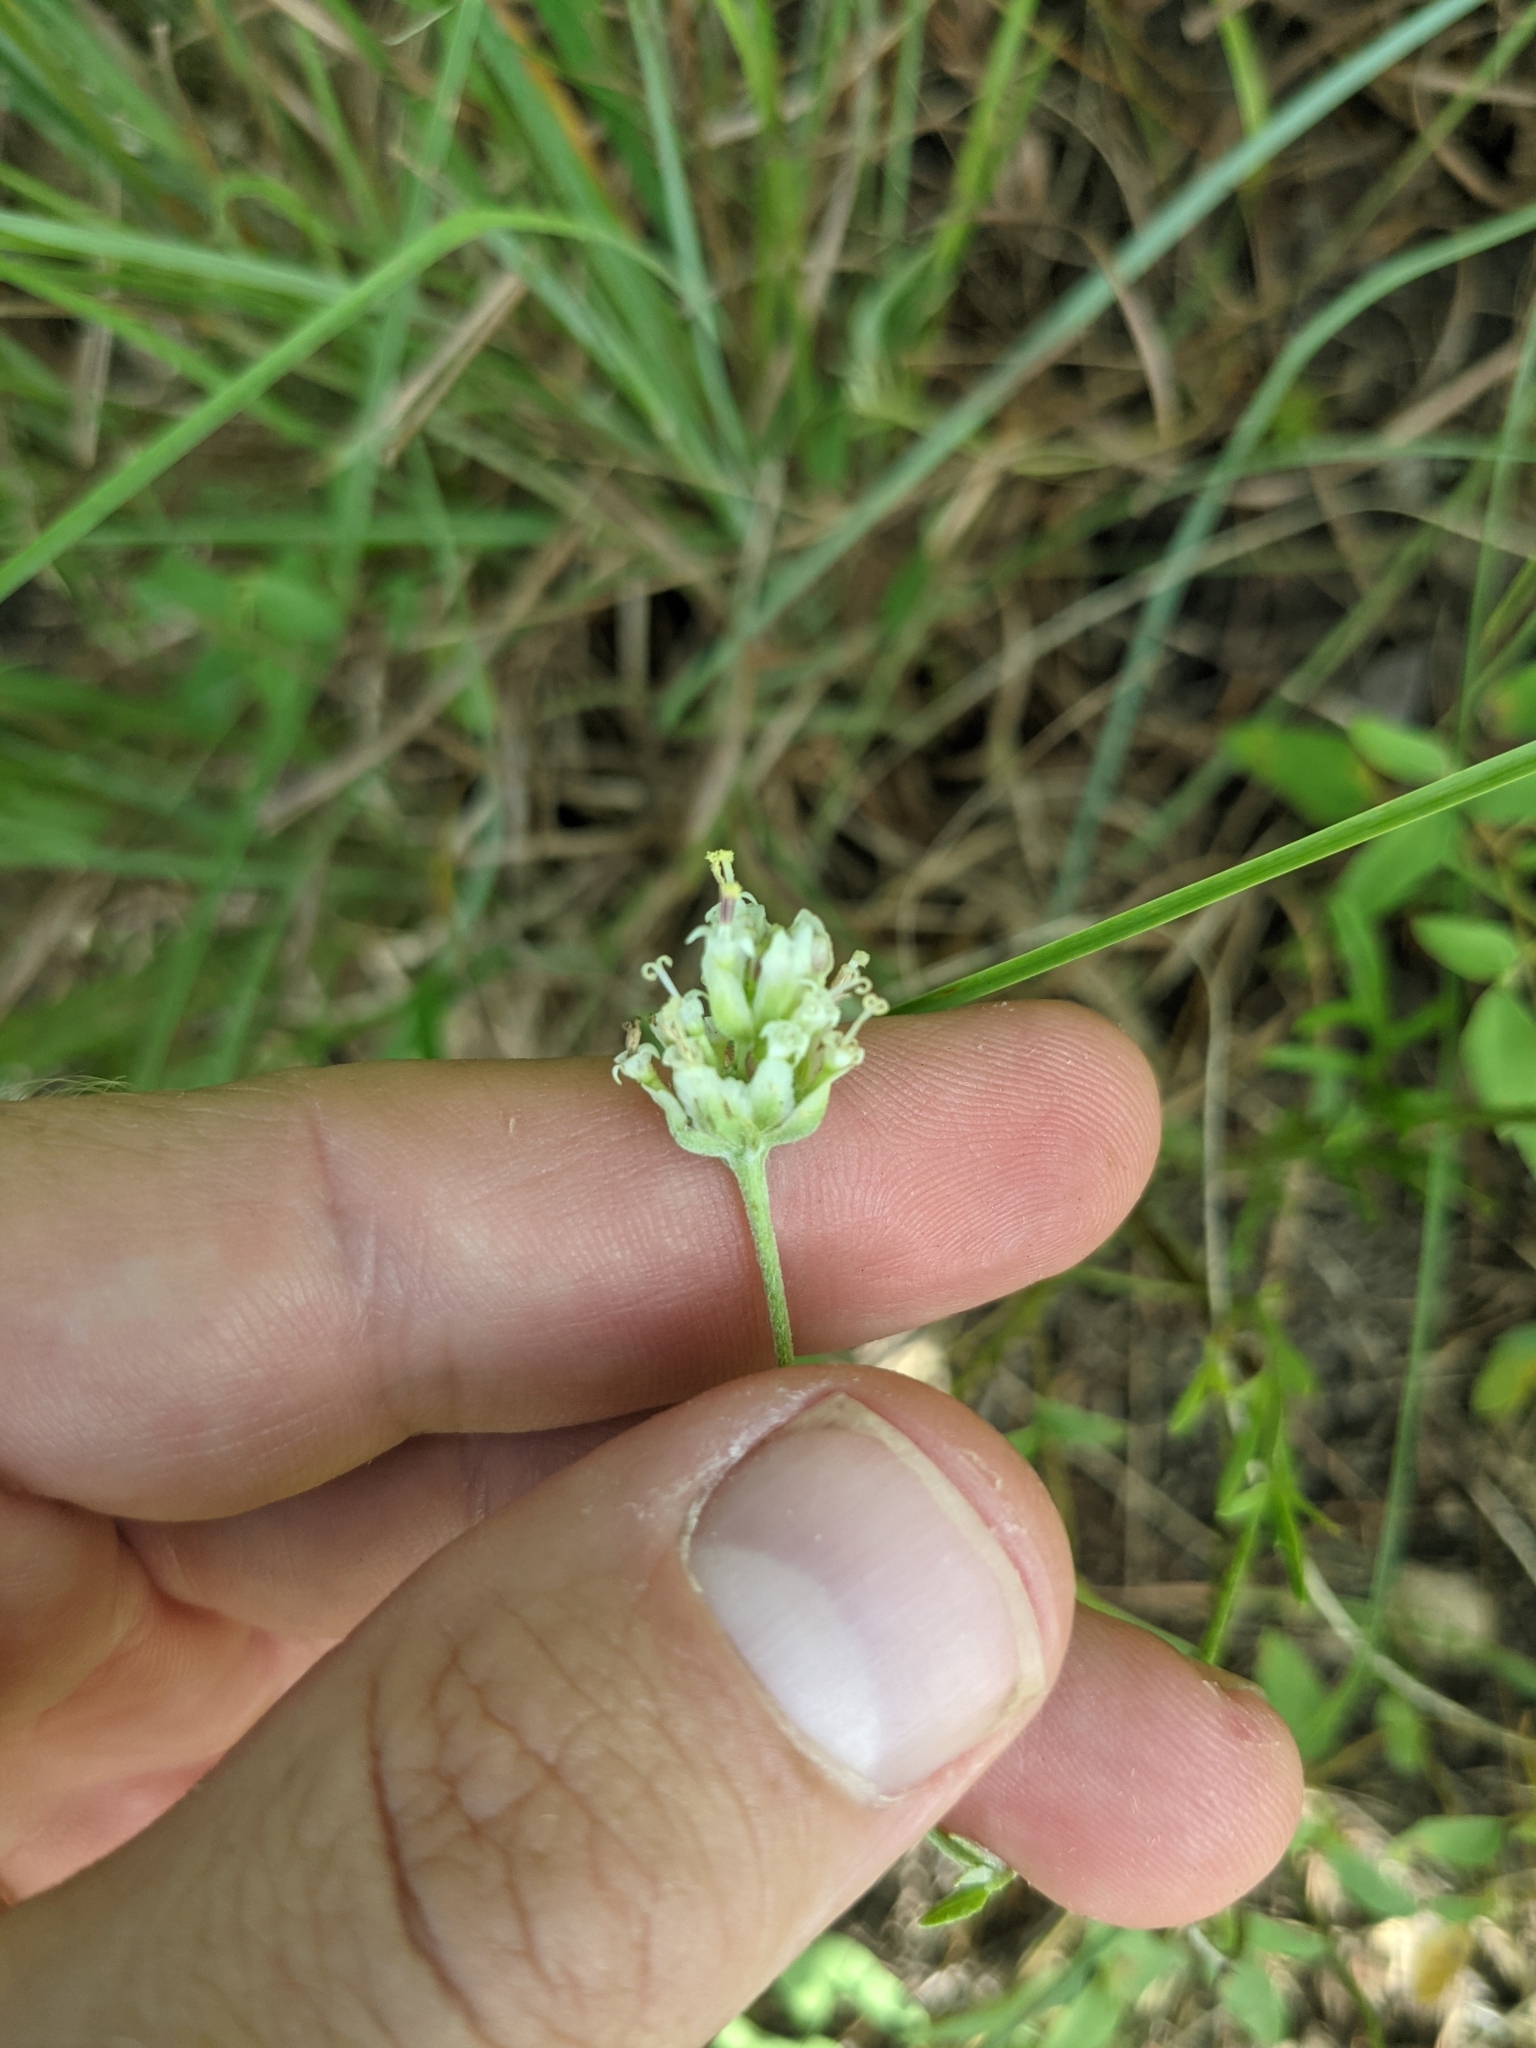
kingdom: Plantae
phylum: Tracheophyta
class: Magnoliopsida
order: Asterales
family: Asteraceae
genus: Hymenopappus
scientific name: Hymenopappus scabiosaeus
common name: Carolina woollywhite
